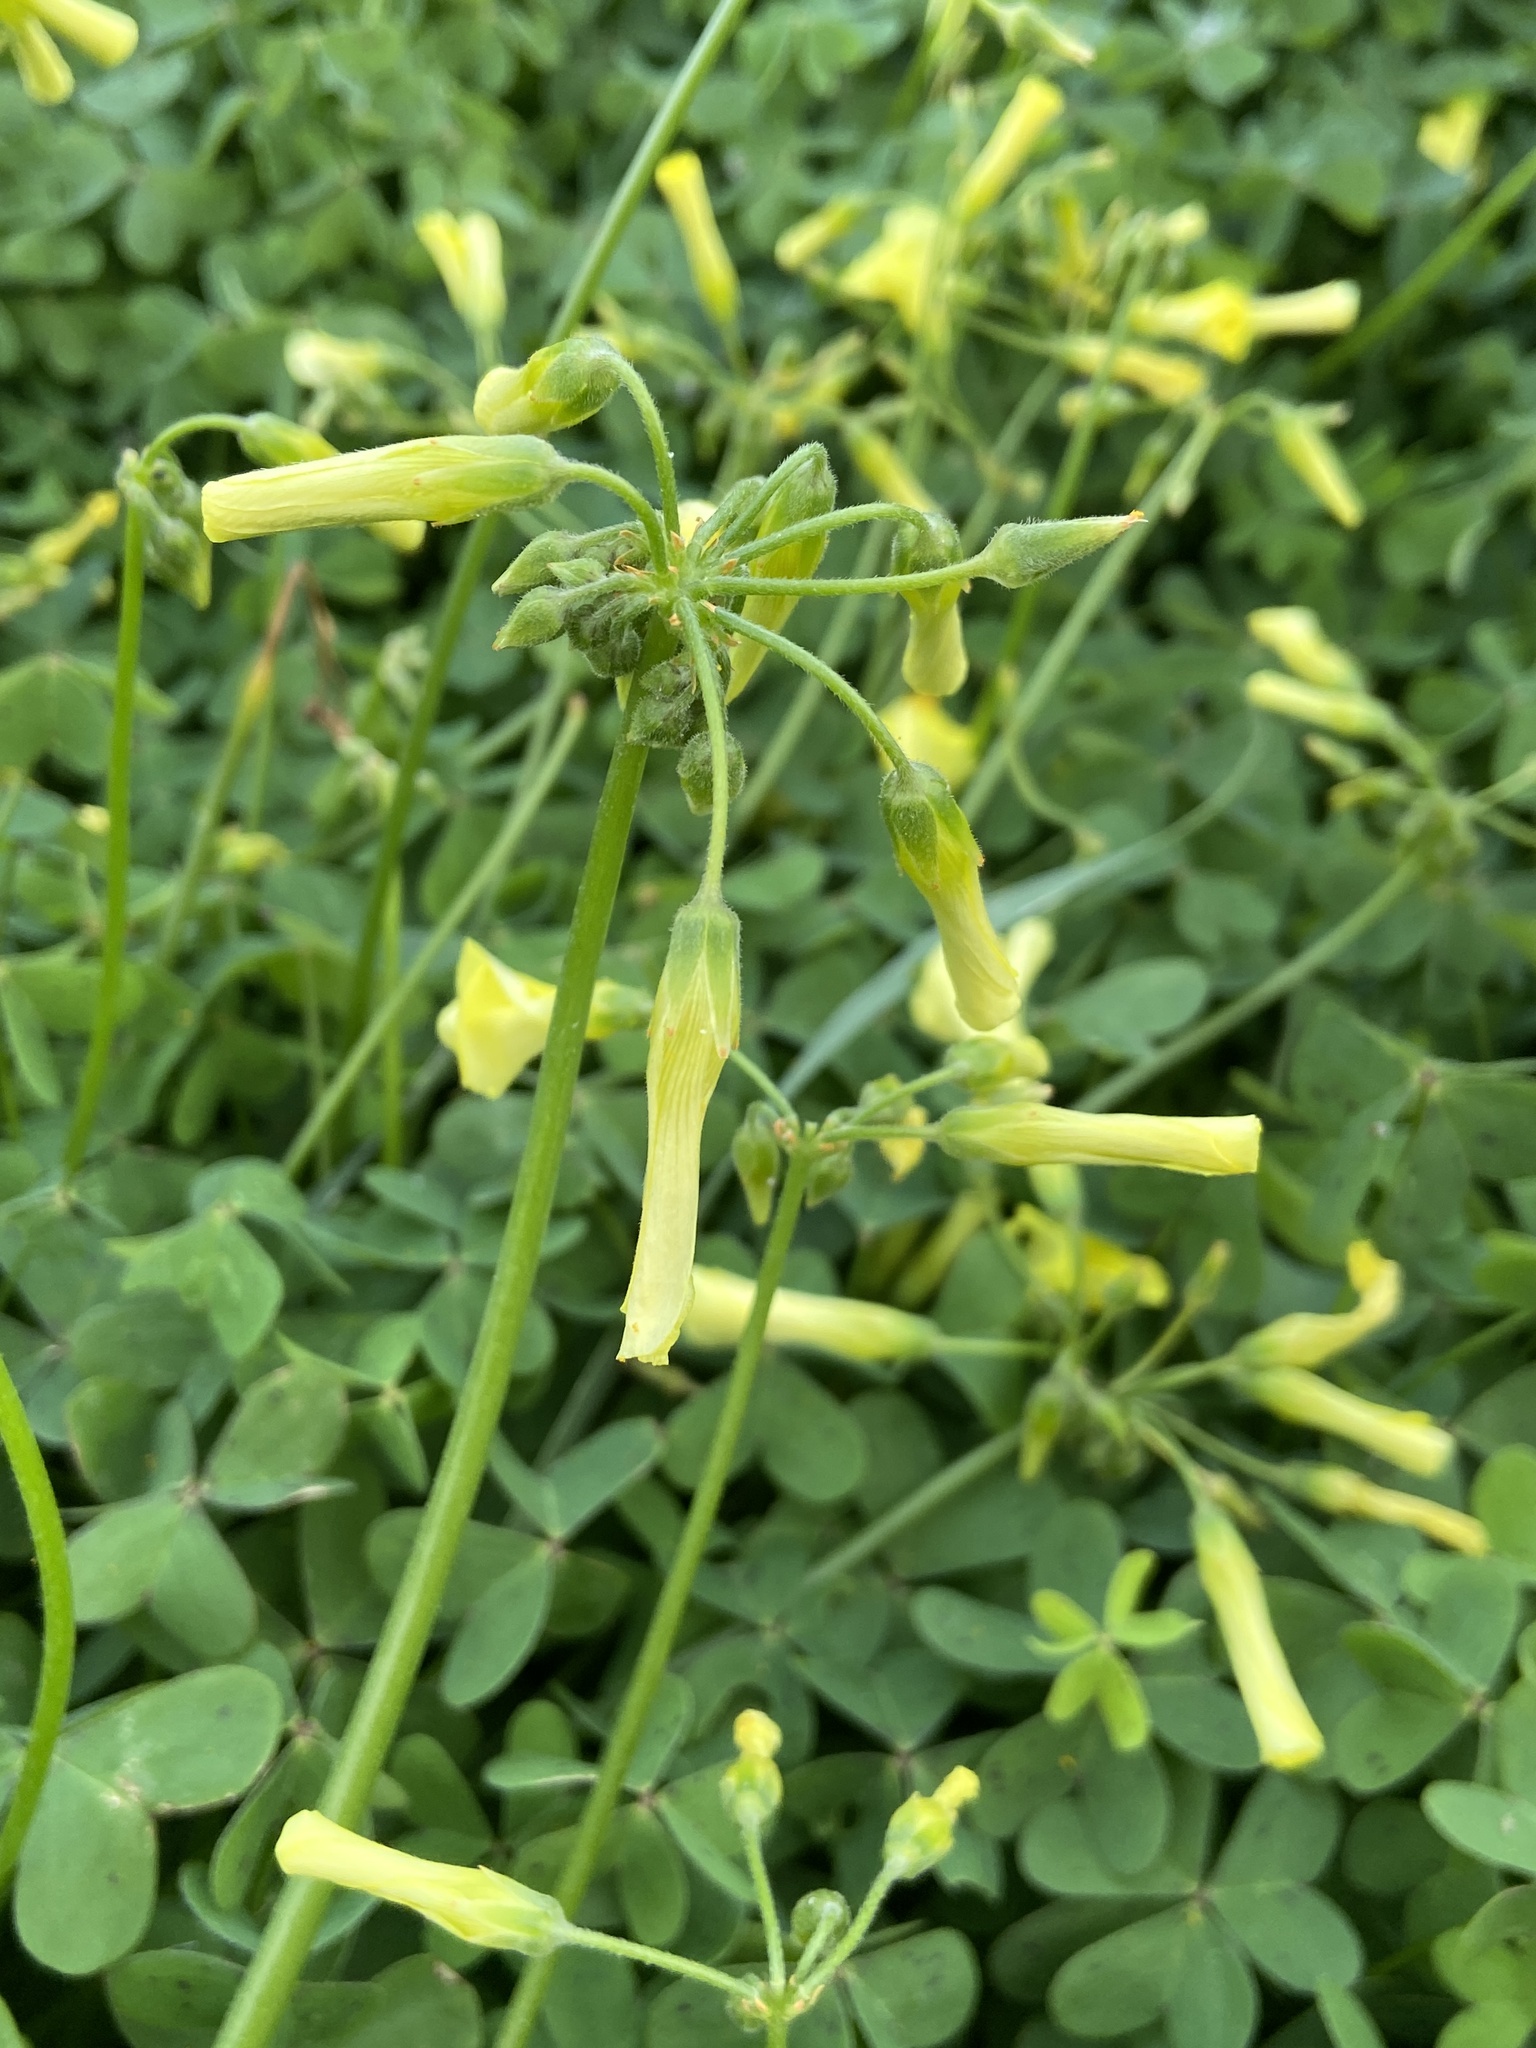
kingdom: Plantae
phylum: Tracheophyta
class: Magnoliopsida
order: Oxalidales
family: Oxalidaceae
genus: Oxalis
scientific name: Oxalis pes-caprae
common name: Bermuda-buttercup
